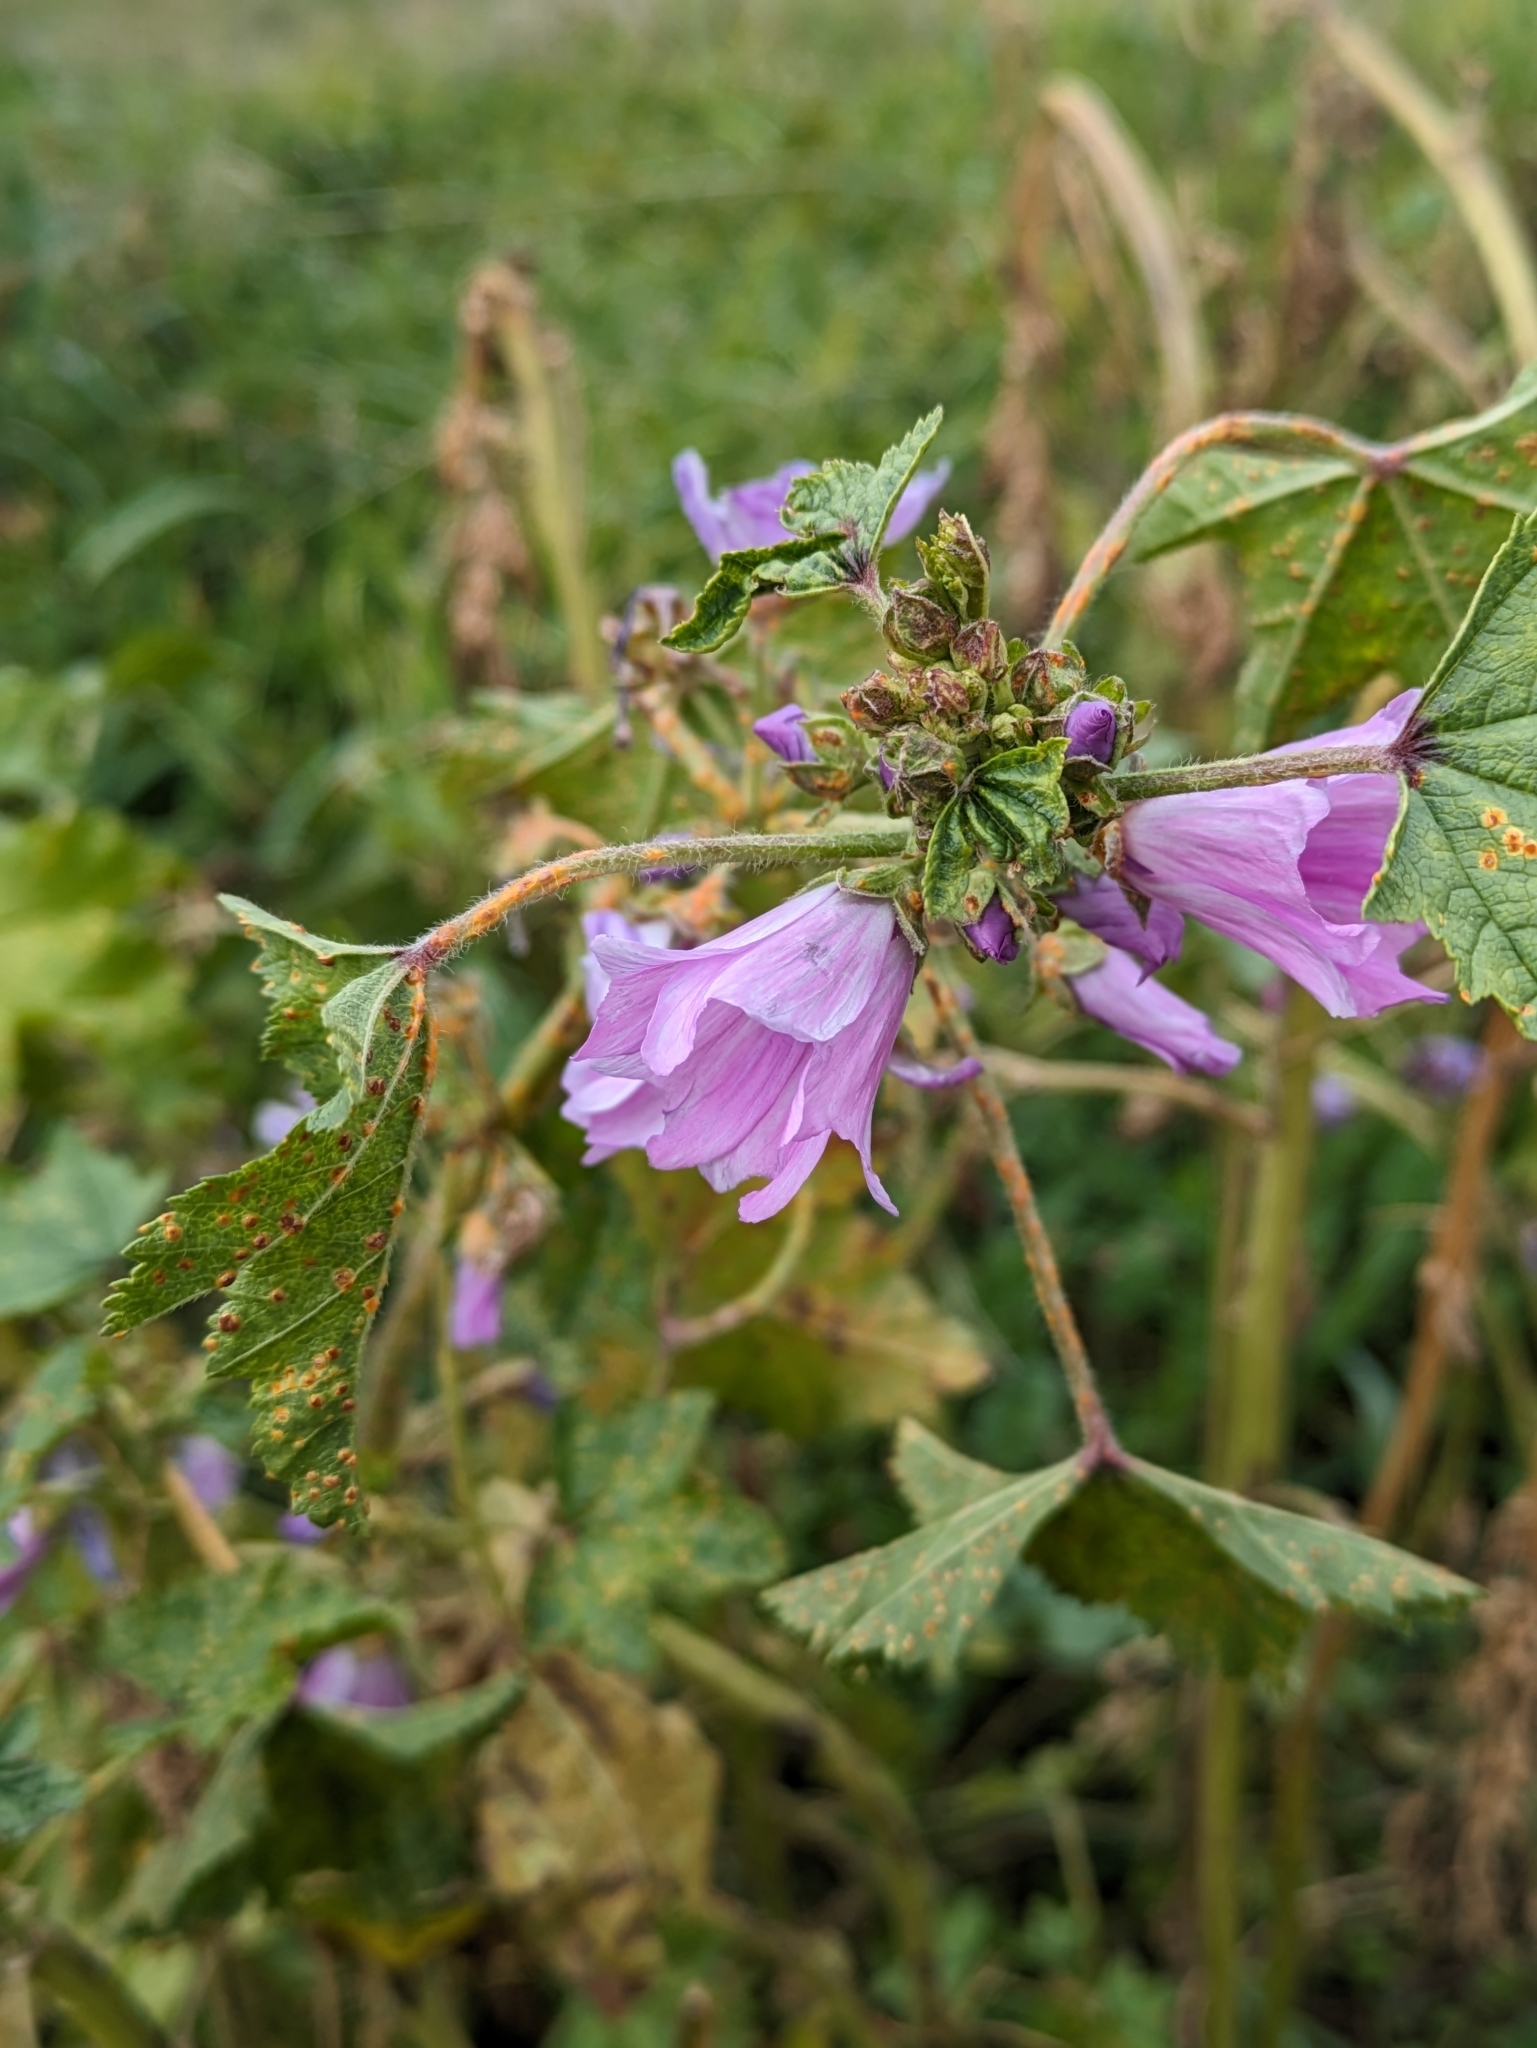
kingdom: Plantae
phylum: Tracheophyta
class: Magnoliopsida
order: Malvales
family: Malvaceae
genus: Malva
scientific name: Malva sylvestris
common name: Common mallow
